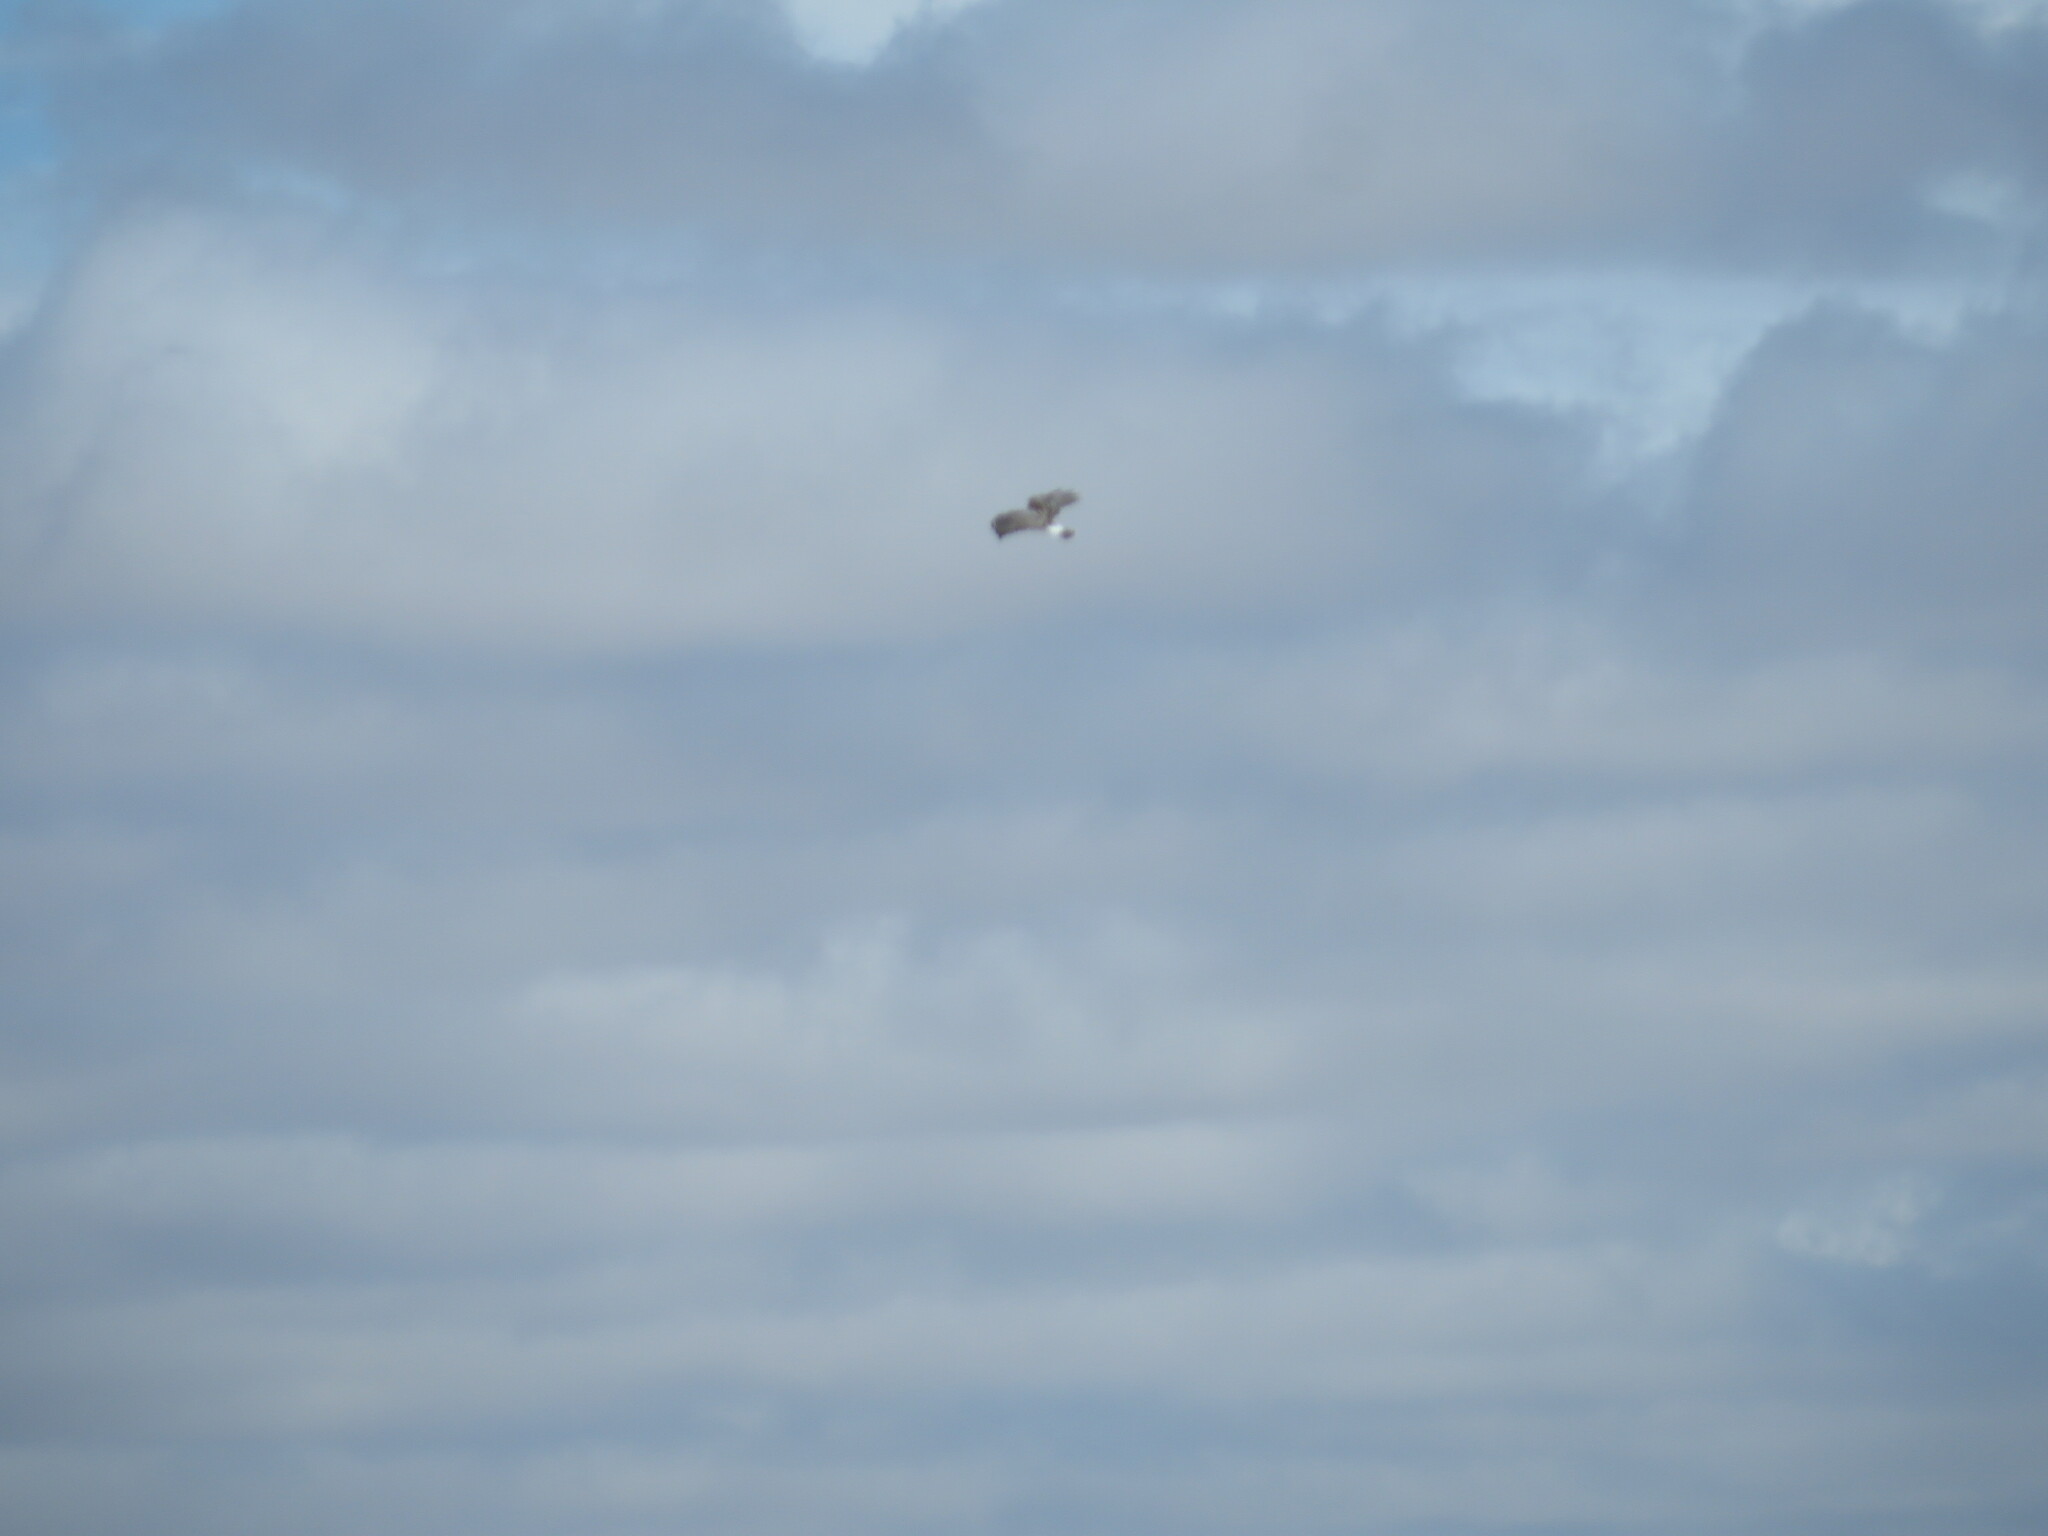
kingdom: Animalia
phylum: Chordata
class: Aves
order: Accipitriformes
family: Accipitridae
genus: Circus
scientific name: Circus cyaneus
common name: Hen harrier
